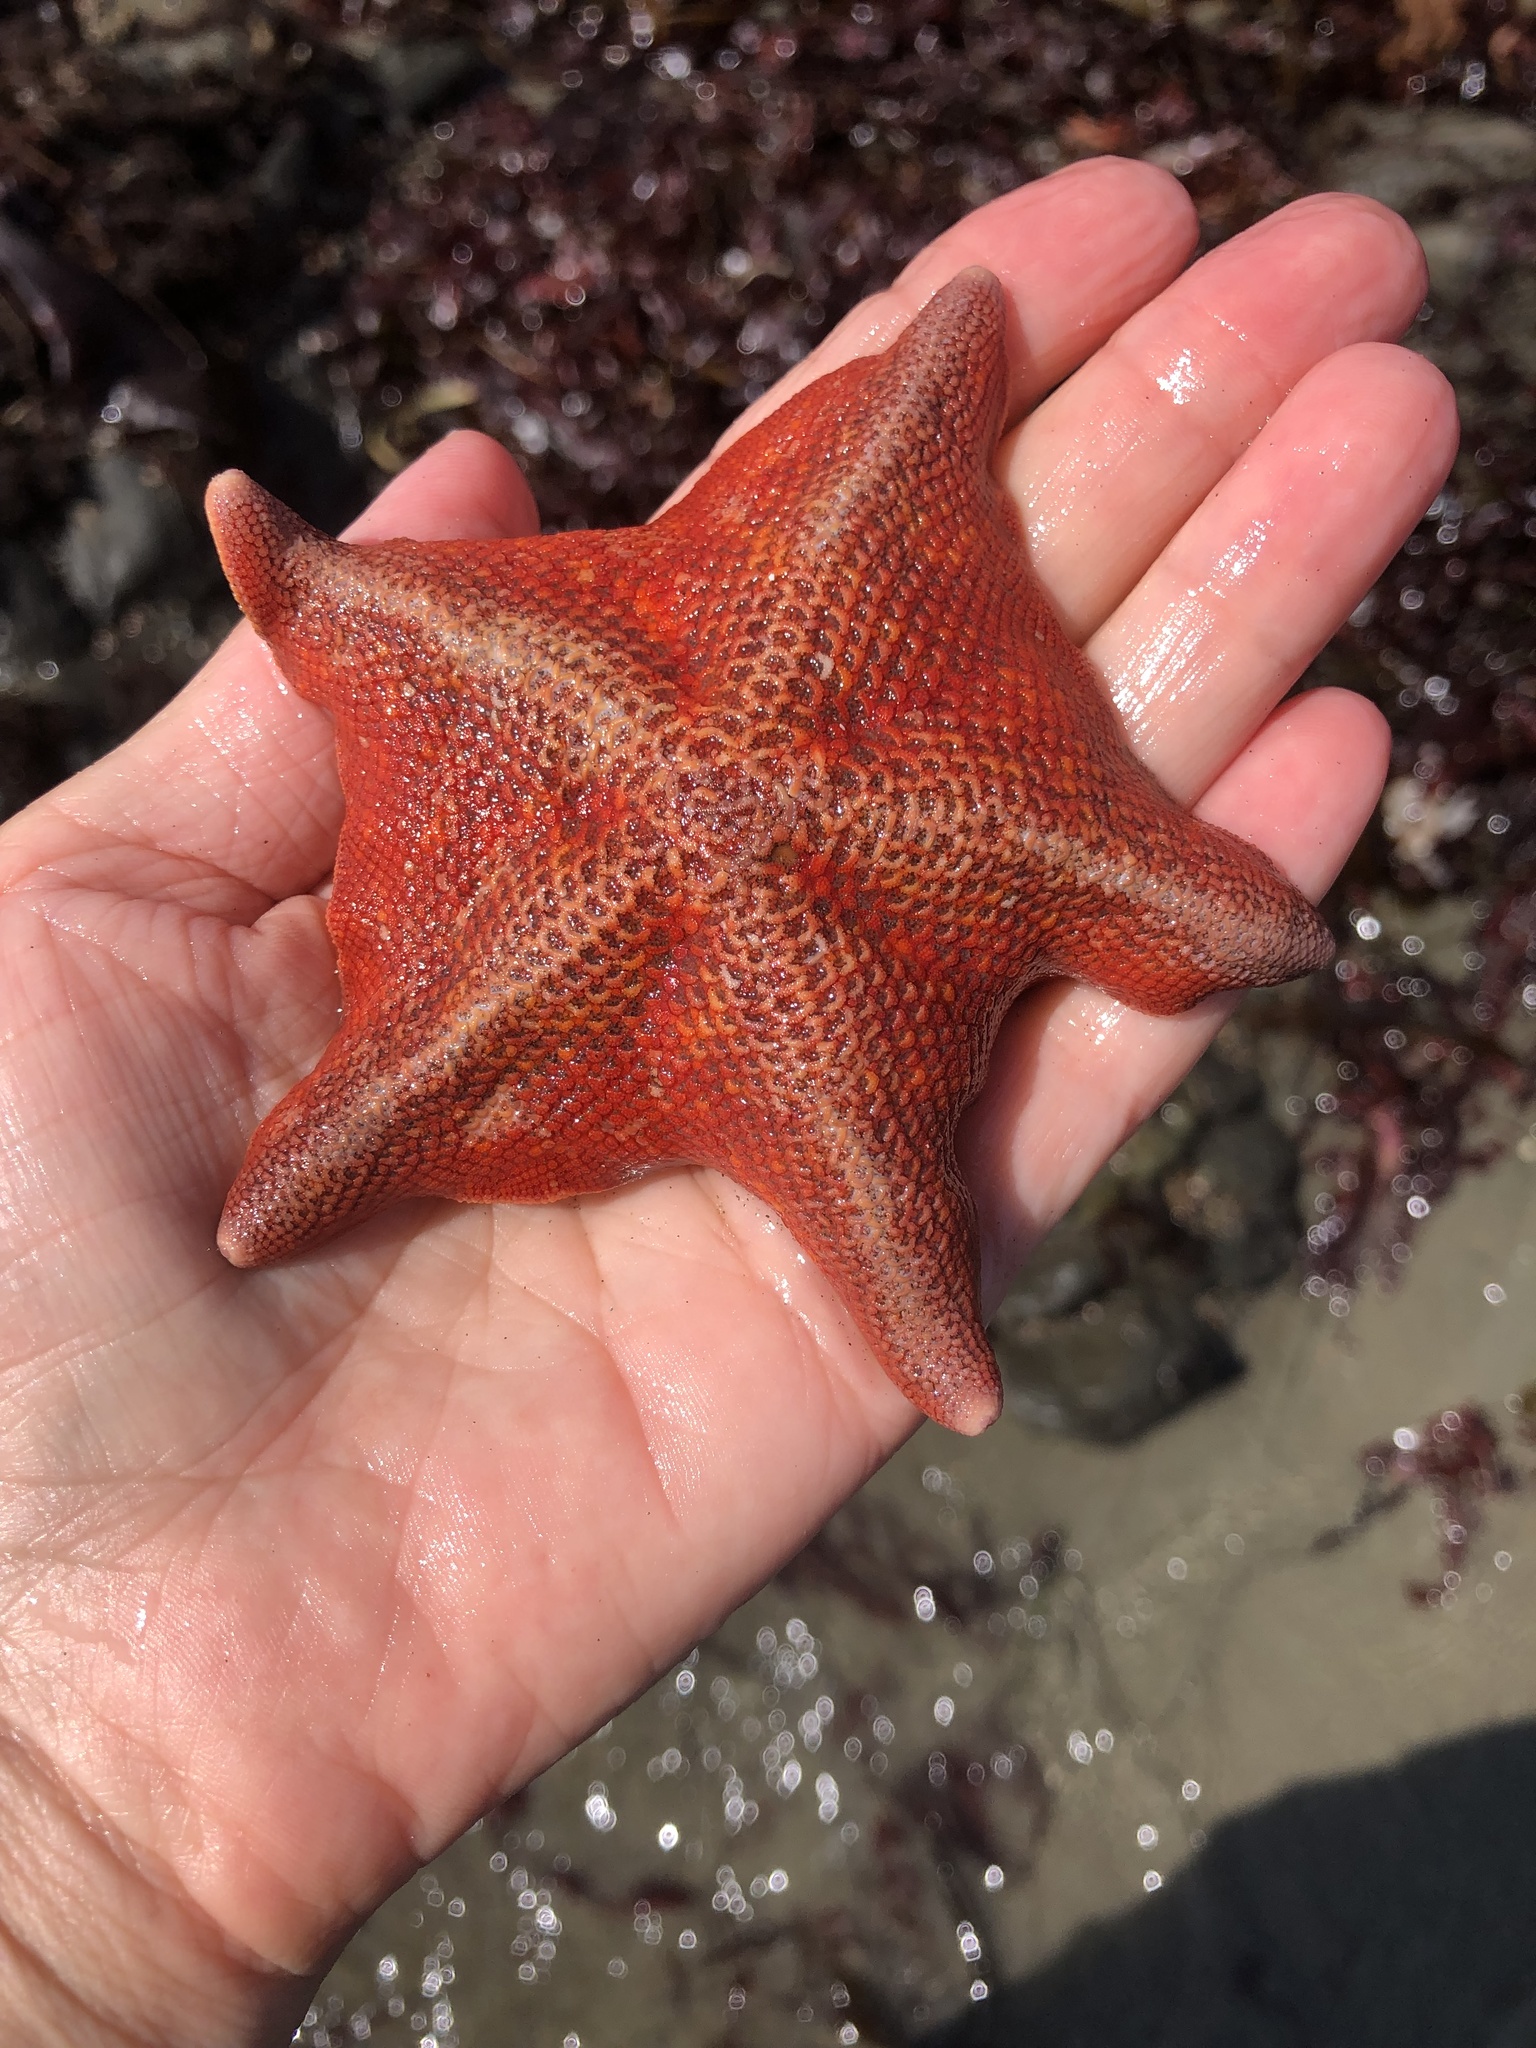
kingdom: Animalia
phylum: Echinodermata
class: Asteroidea
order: Valvatida
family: Asterinidae
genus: Patiria
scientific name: Patiria miniata
